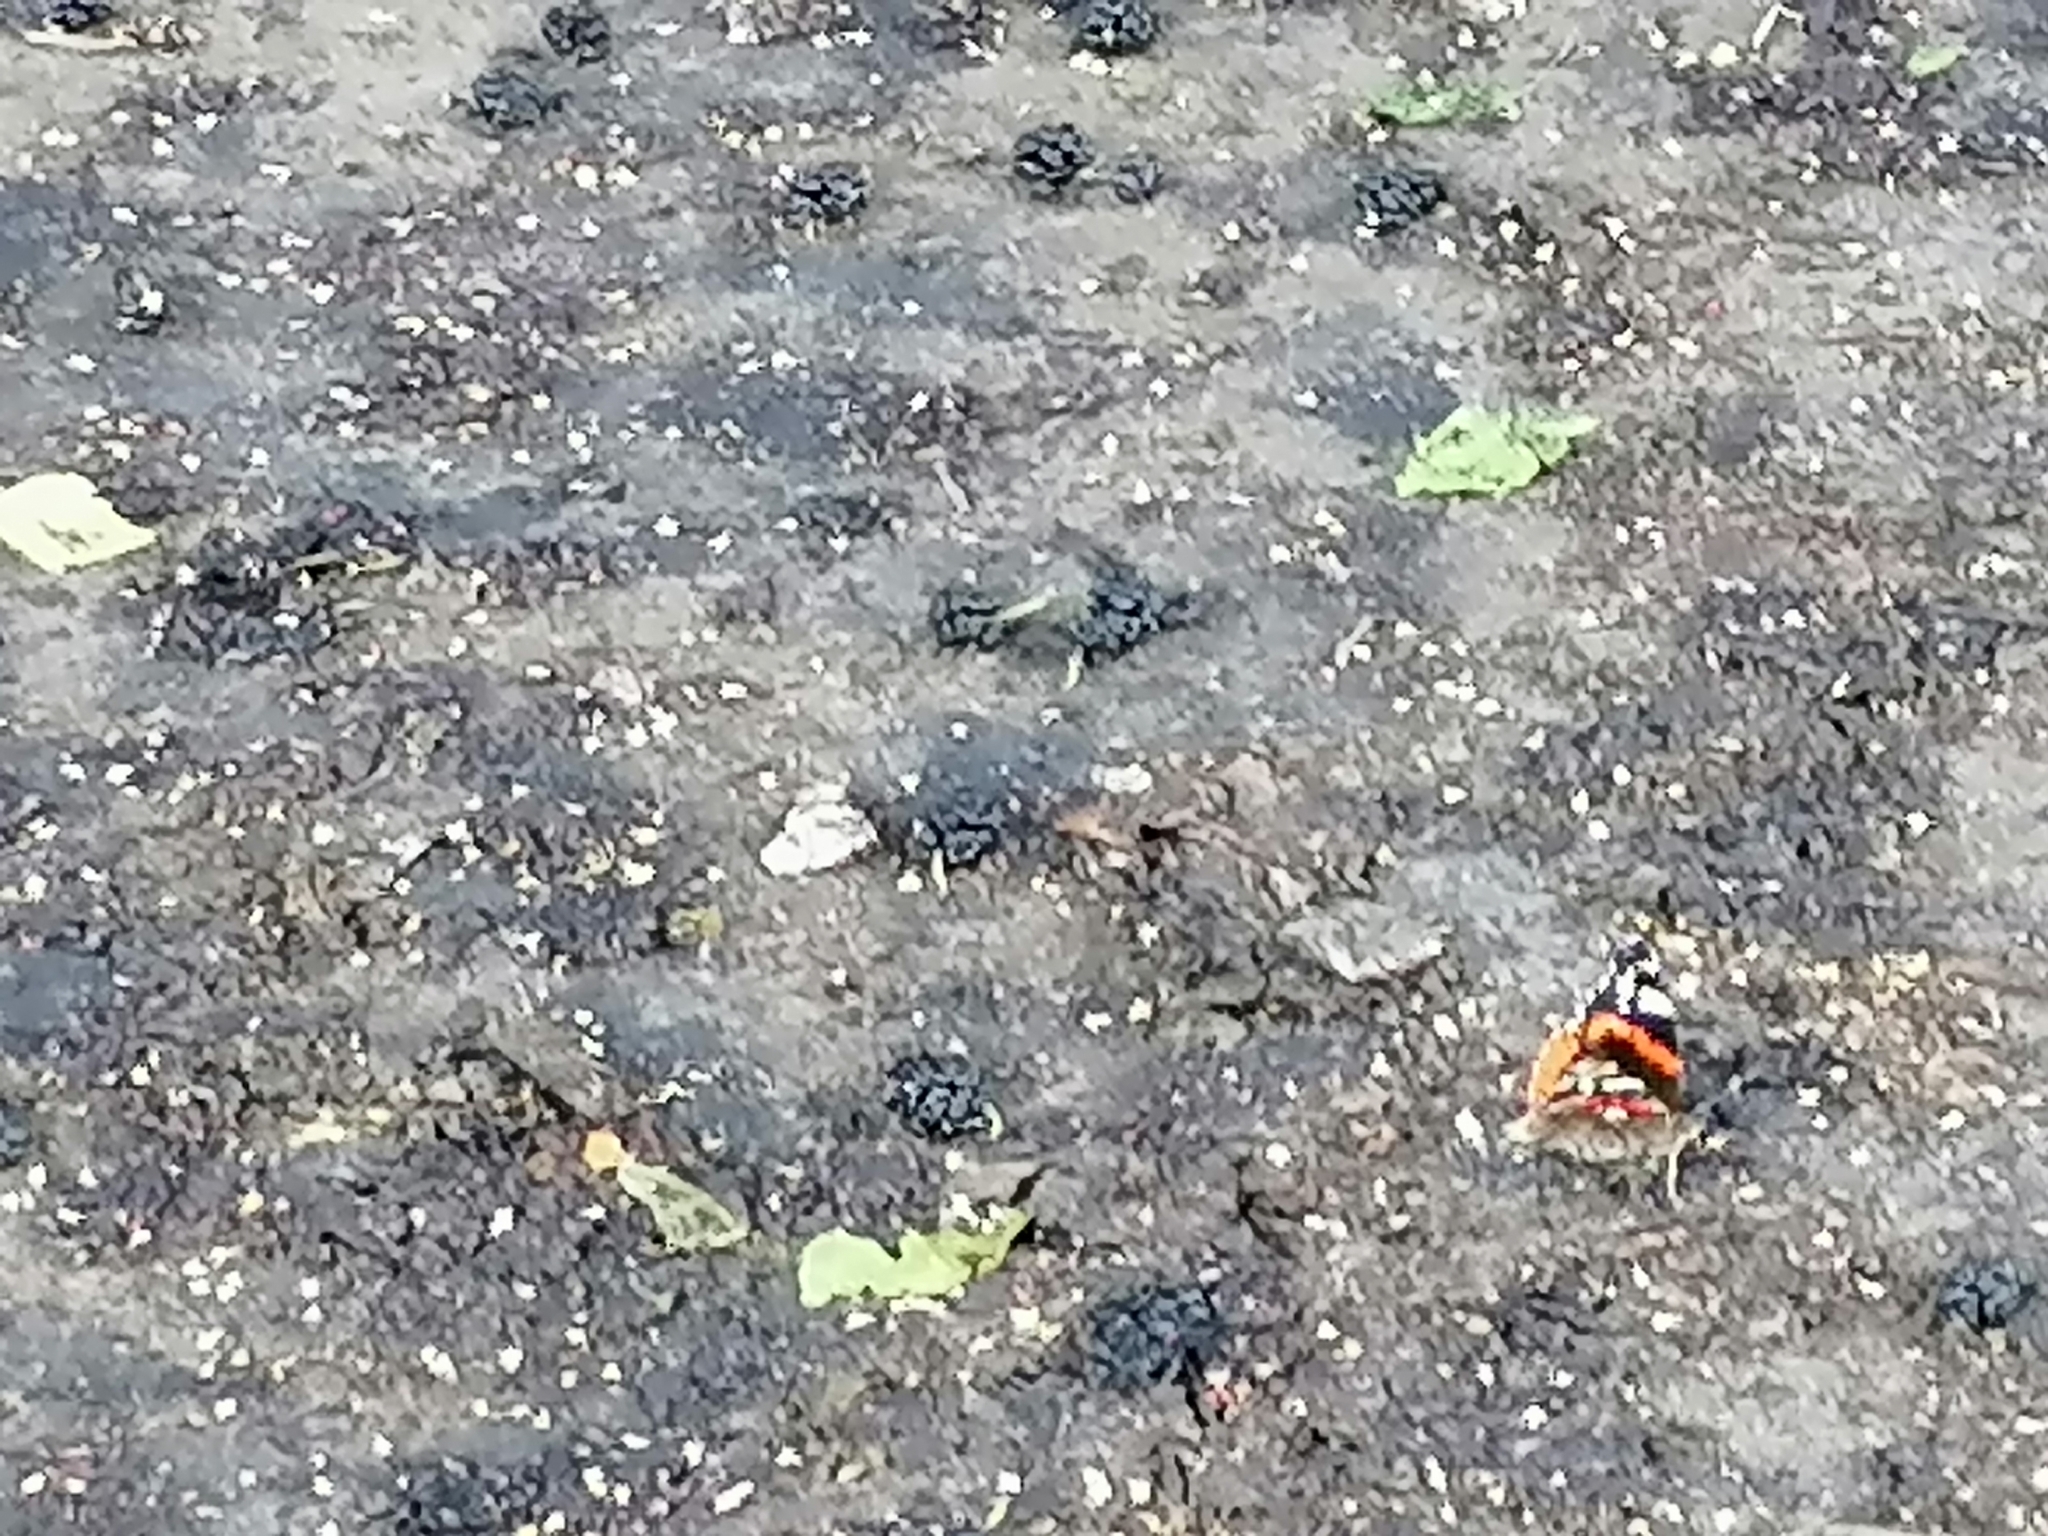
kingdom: Animalia
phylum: Arthropoda
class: Insecta
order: Lepidoptera
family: Nymphalidae
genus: Vanessa
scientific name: Vanessa atalanta
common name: Red admiral
